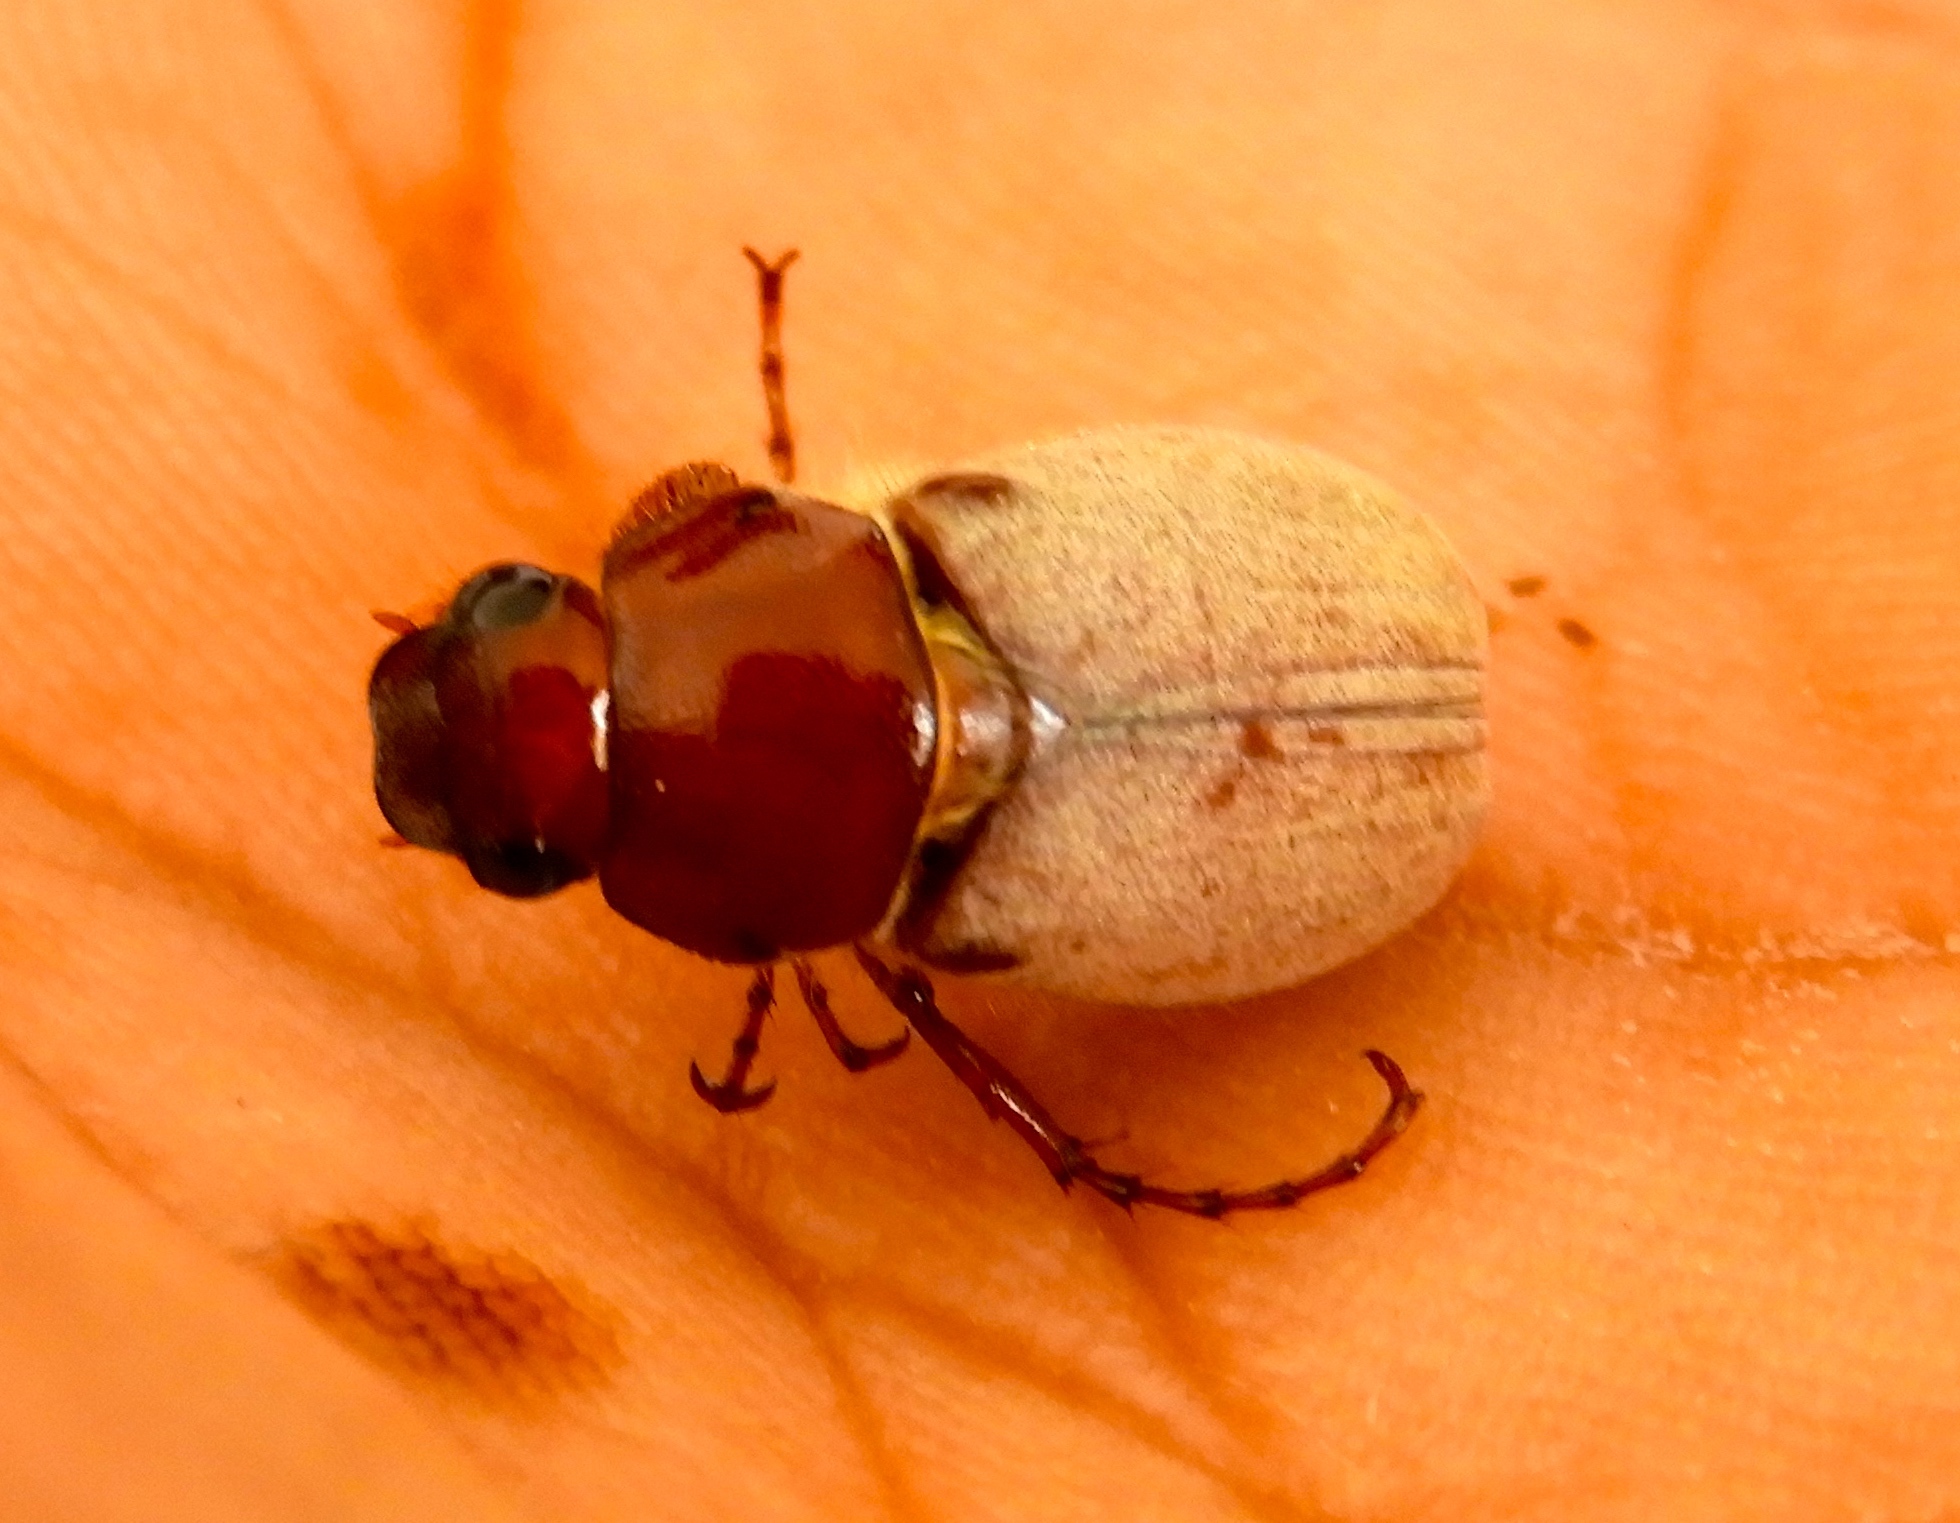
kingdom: Animalia
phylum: Arthropoda
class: Insecta
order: Coleoptera
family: Scarabaeidae
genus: Phyllophaga
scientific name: Phyllophaga
